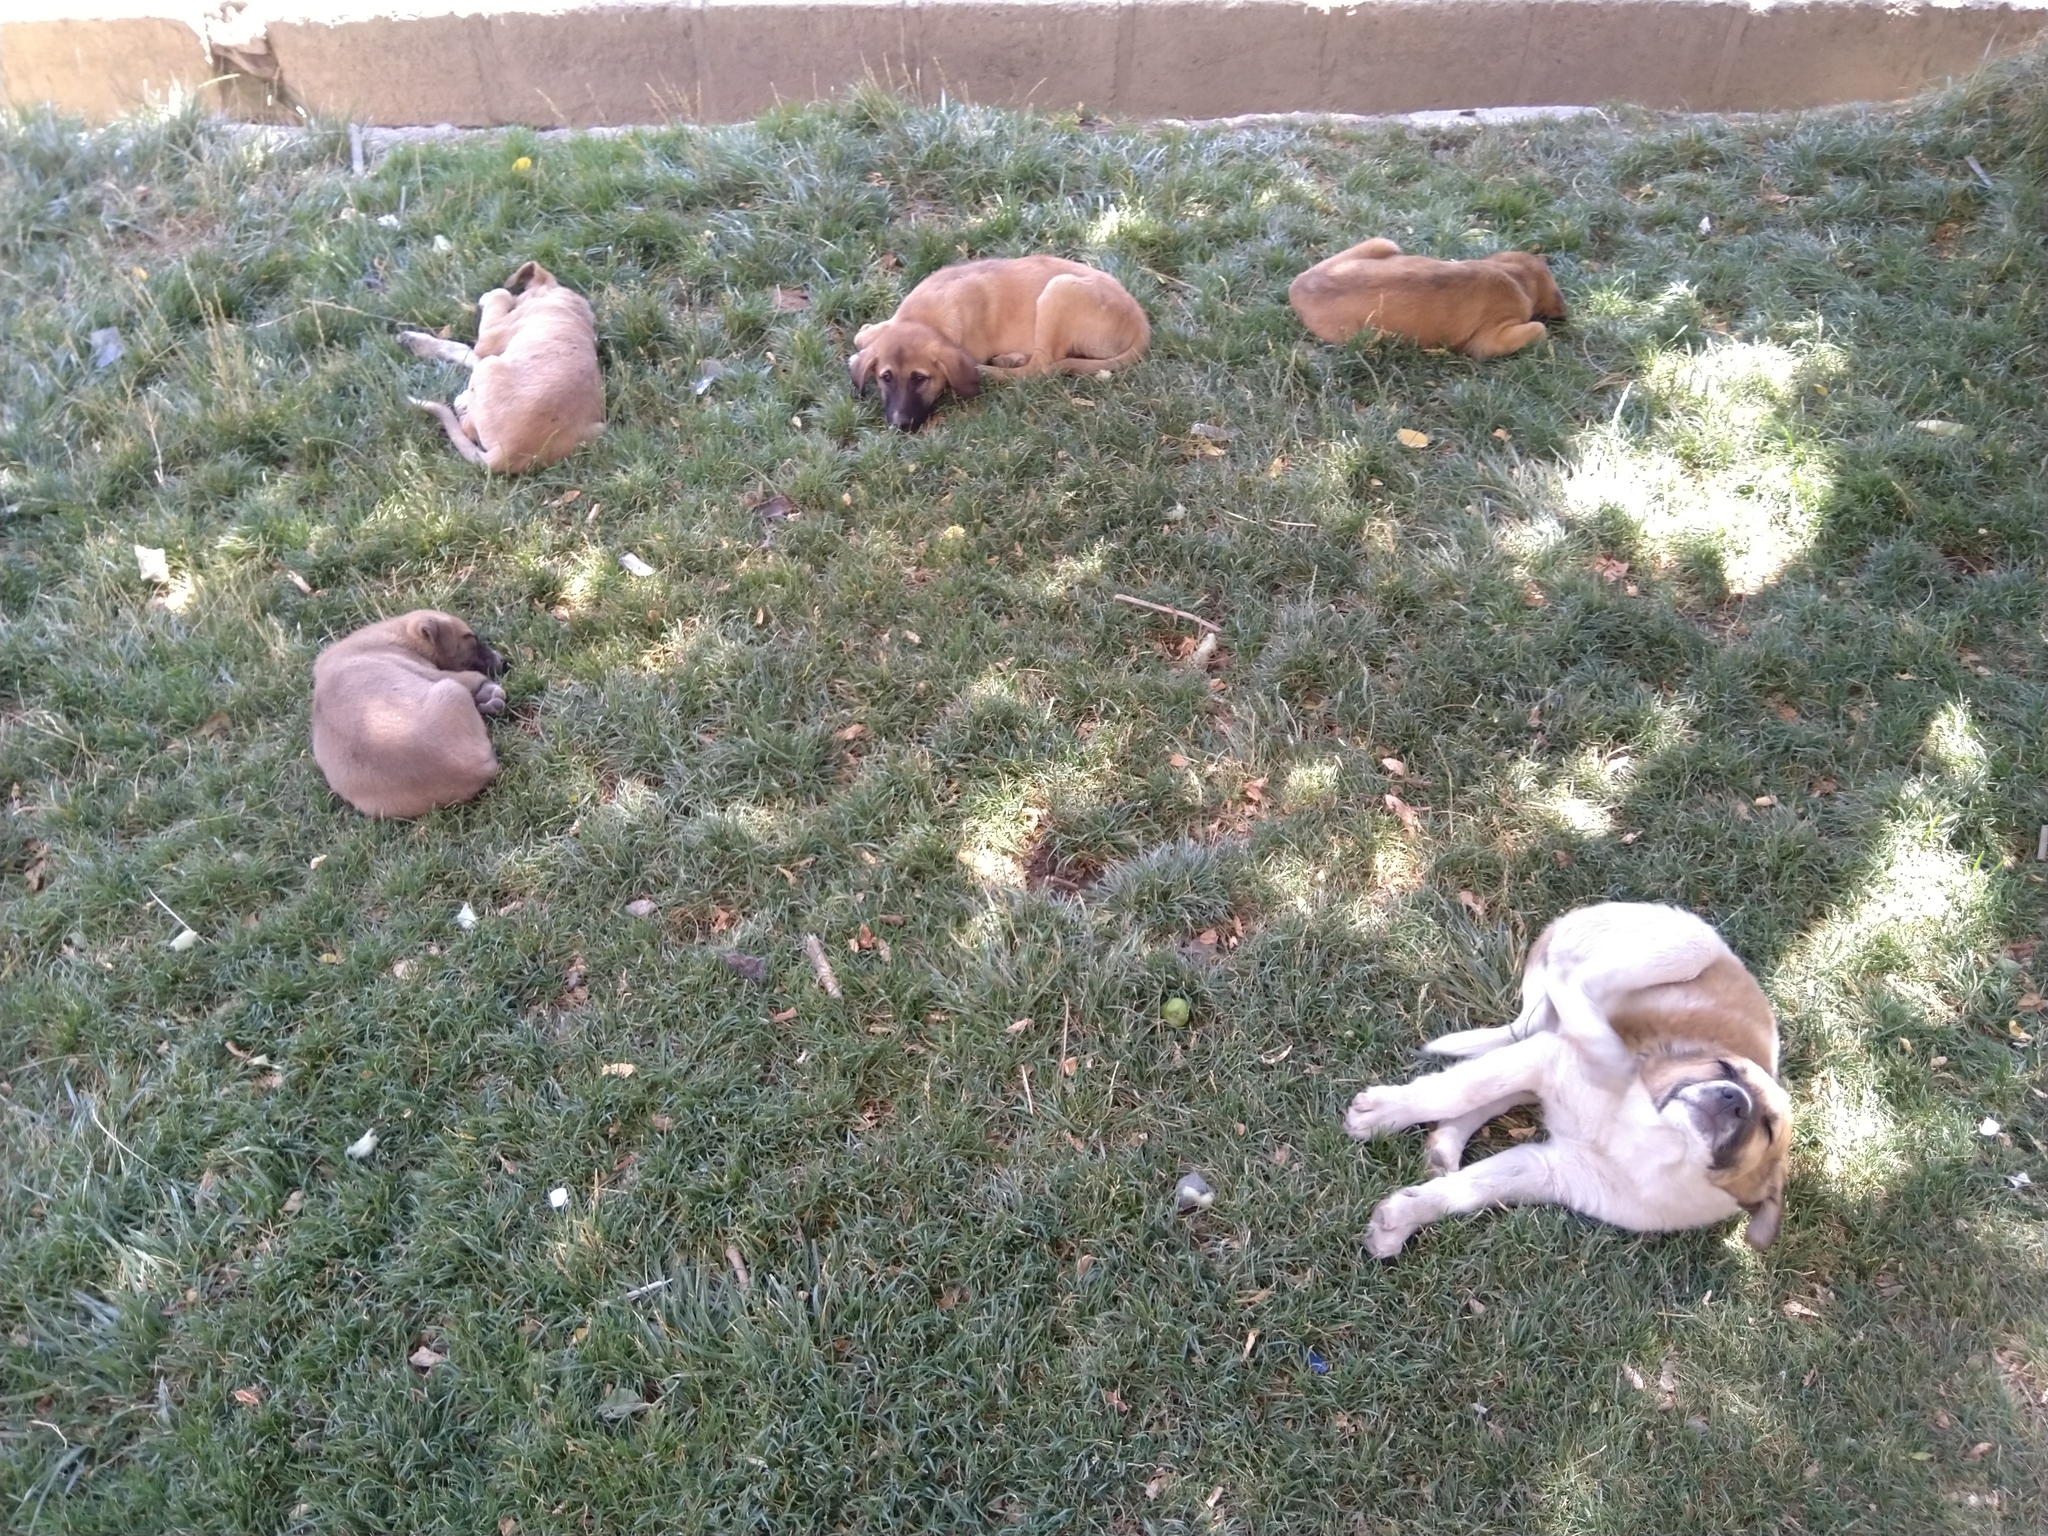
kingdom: Animalia
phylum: Chordata
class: Mammalia
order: Carnivora
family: Canidae
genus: Canis
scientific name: Canis lupus
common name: Gray wolf
